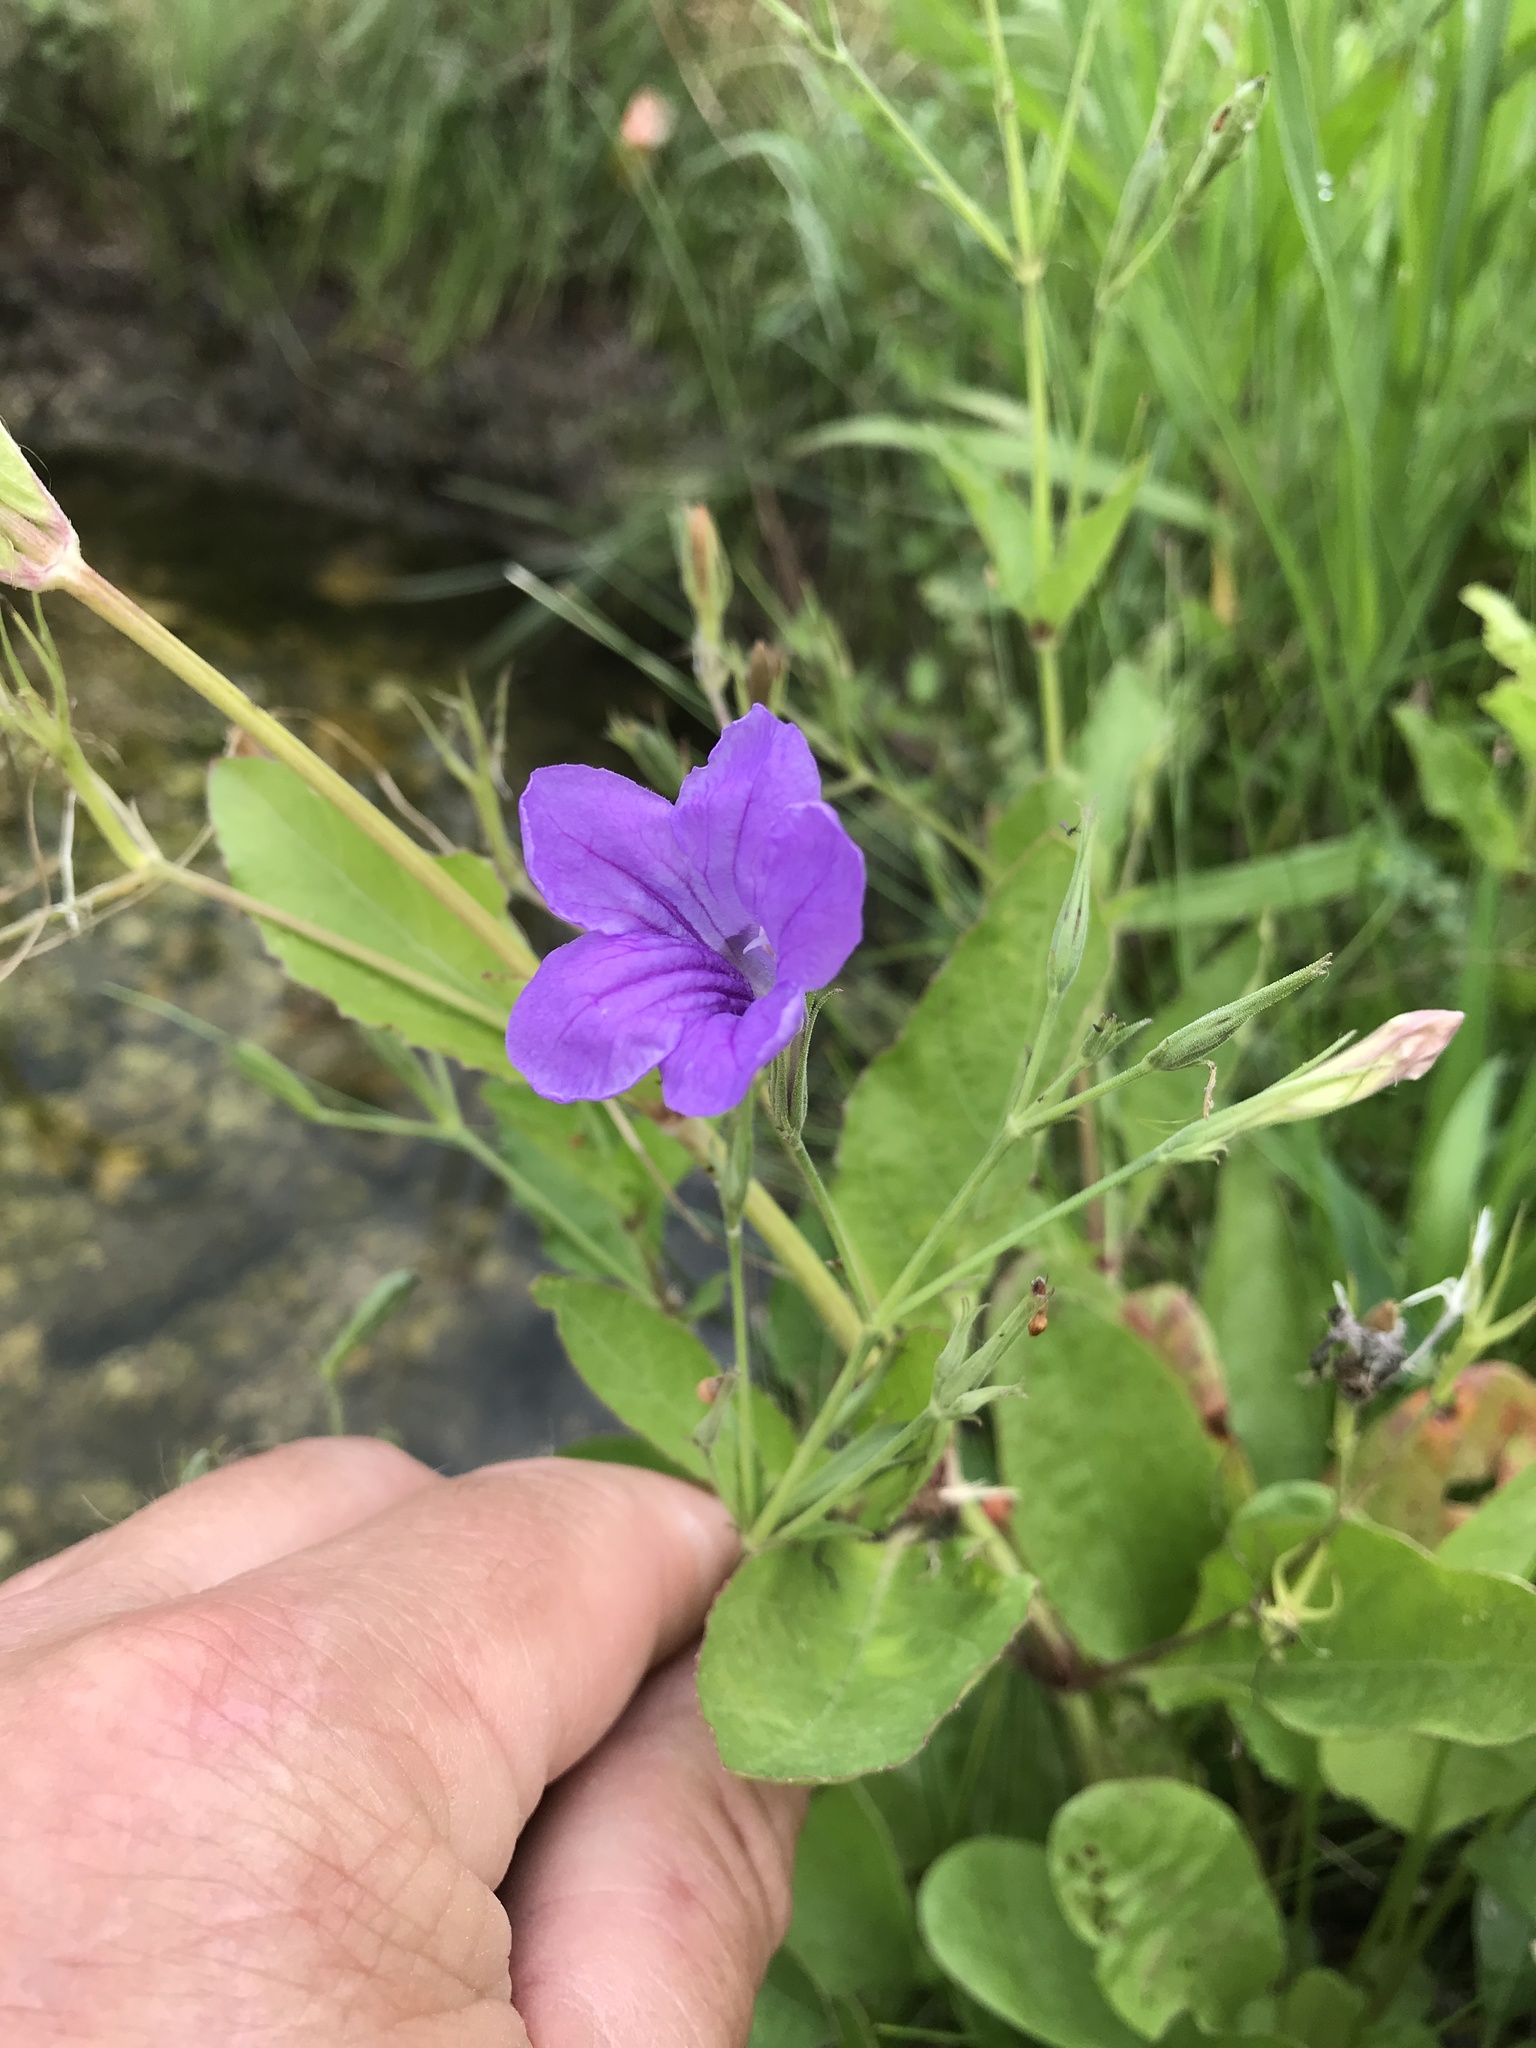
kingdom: Plantae
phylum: Tracheophyta
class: Magnoliopsida
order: Lamiales
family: Acanthaceae
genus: Ruellia
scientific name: Ruellia ciliatiflora
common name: Hairyflower wild petunia
